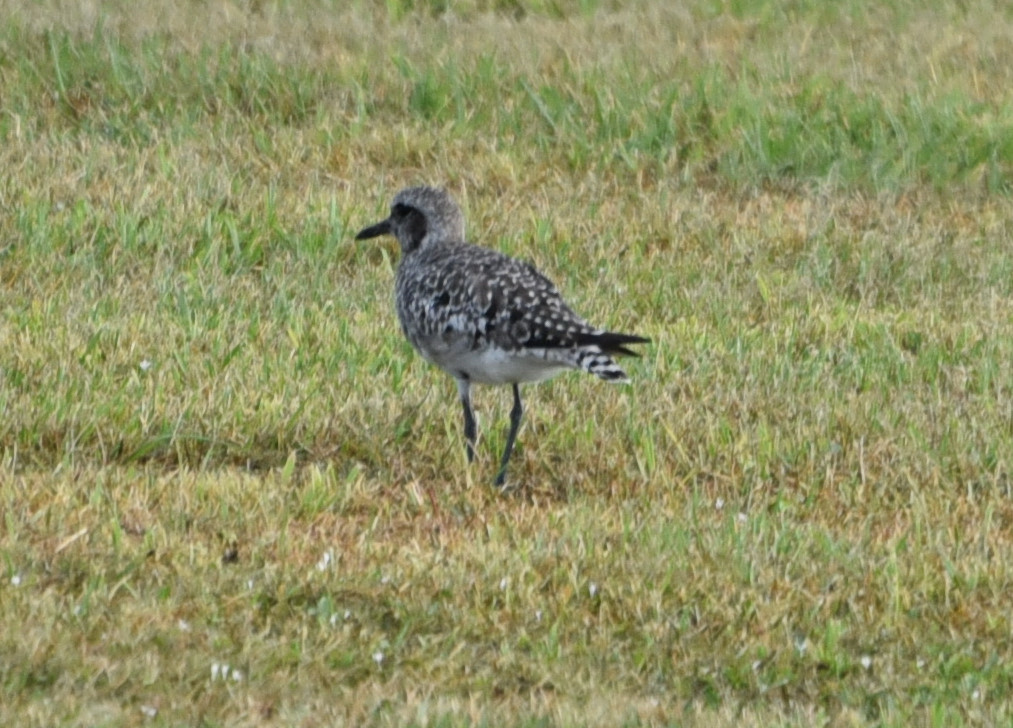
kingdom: Animalia
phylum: Chordata
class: Aves
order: Charadriiformes
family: Charadriidae
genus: Pluvialis
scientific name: Pluvialis squatarola
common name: Grey plover
